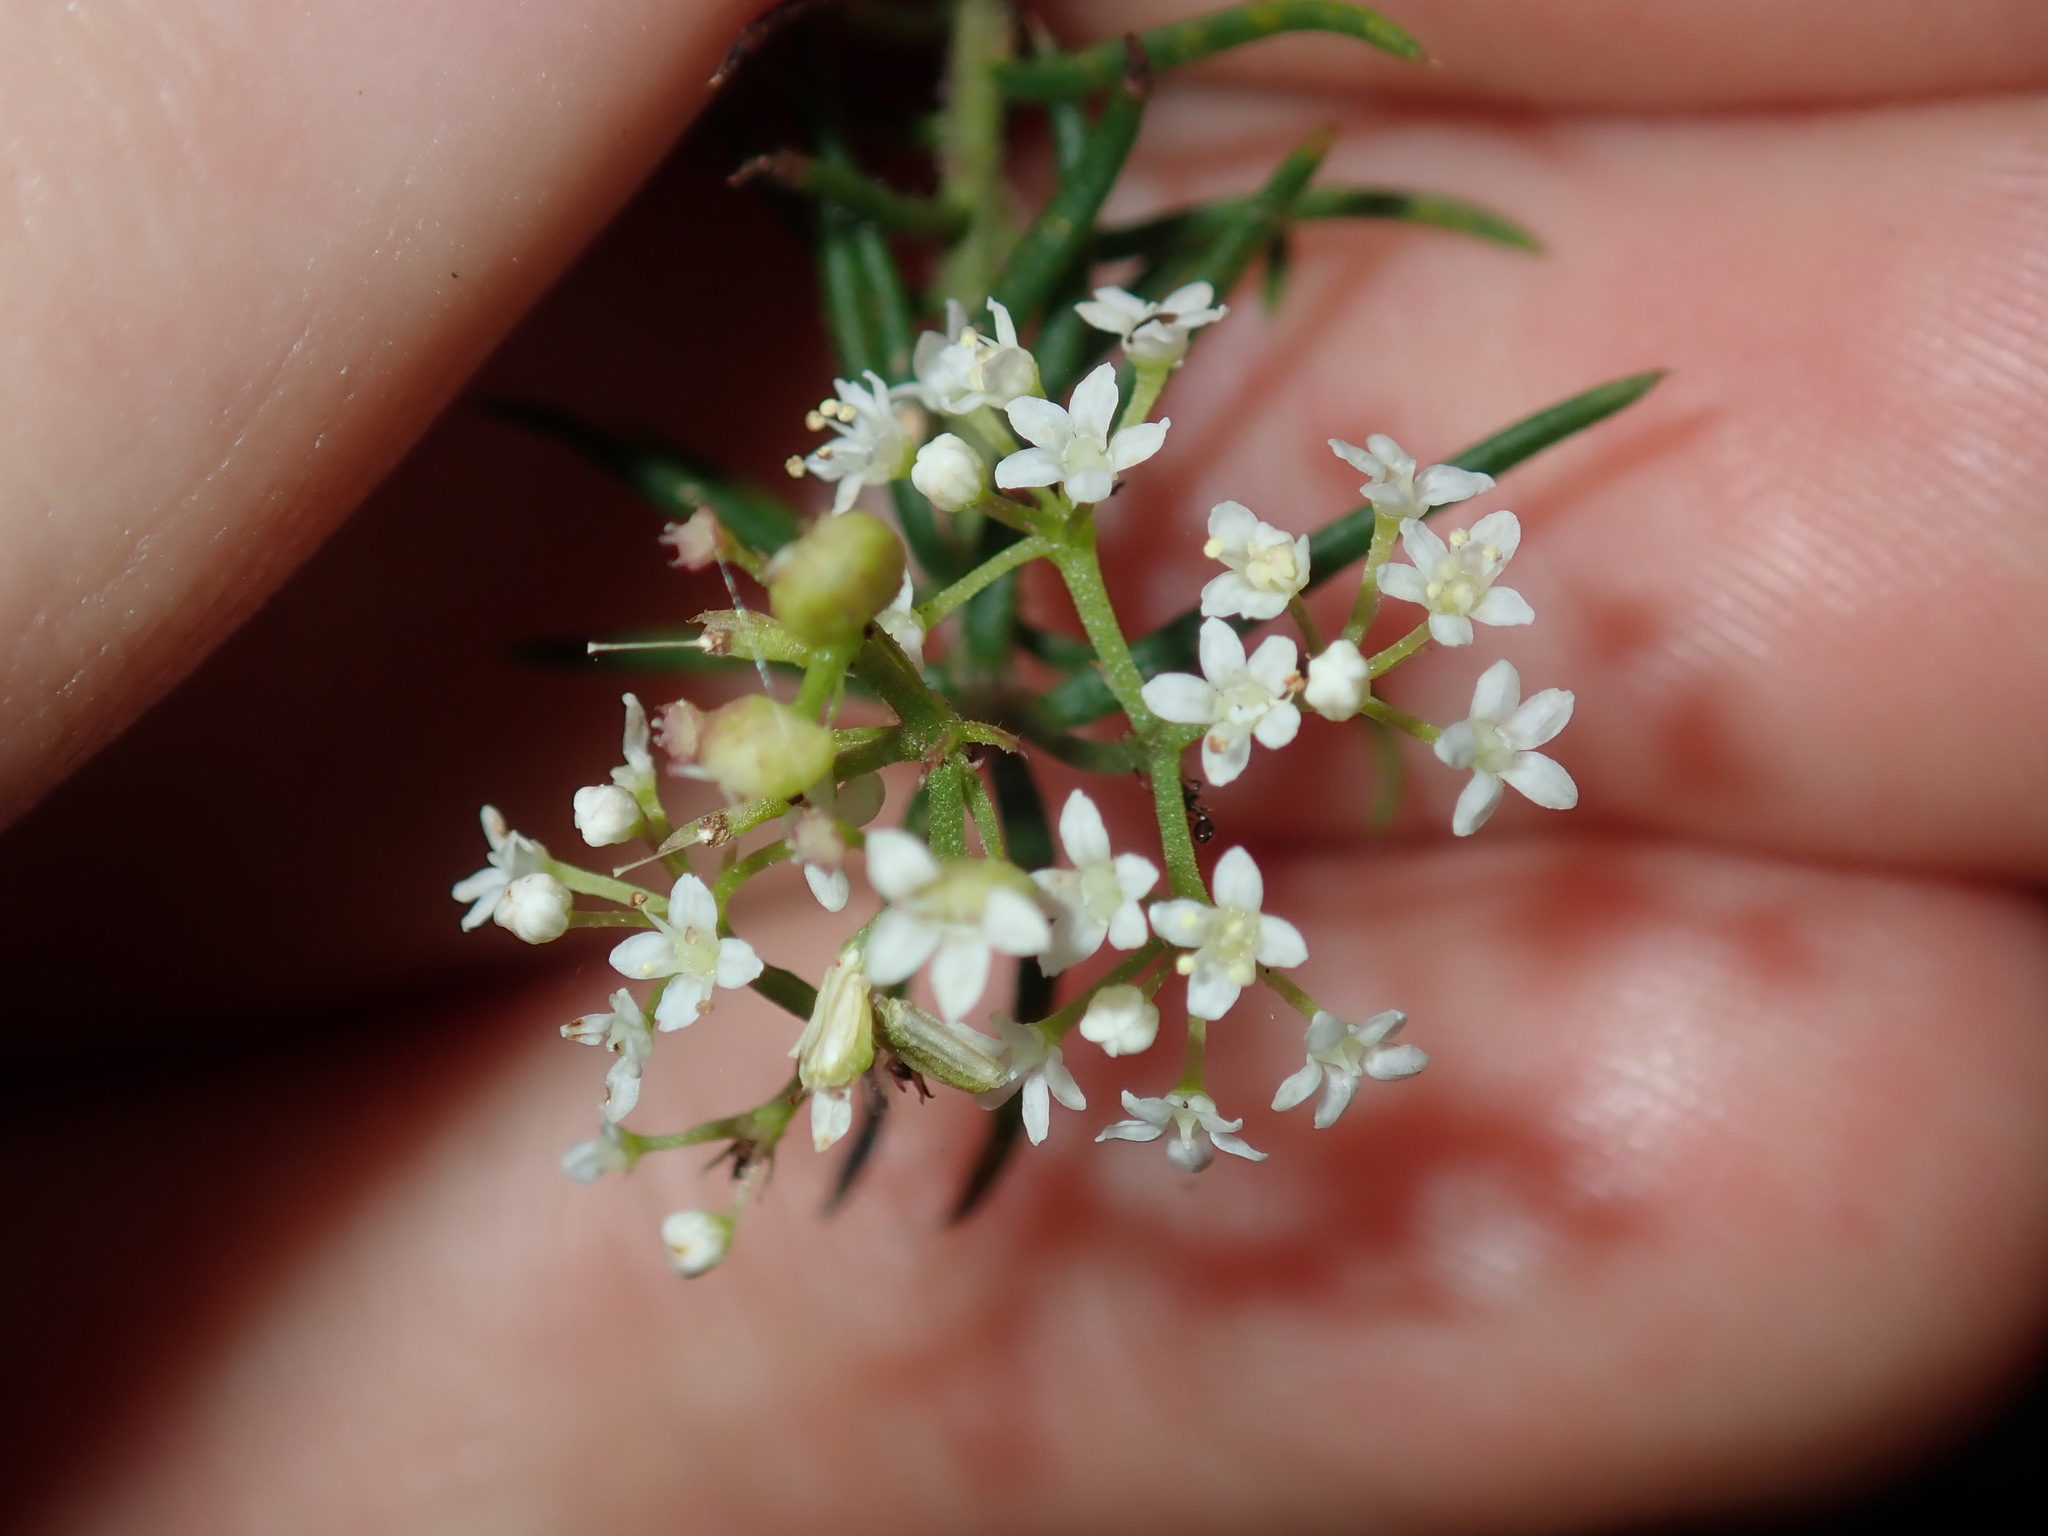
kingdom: Plantae
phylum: Tracheophyta
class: Magnoliopsida
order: Apiales
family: Apiaceae
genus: Platysace
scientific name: Platysace ericoides
